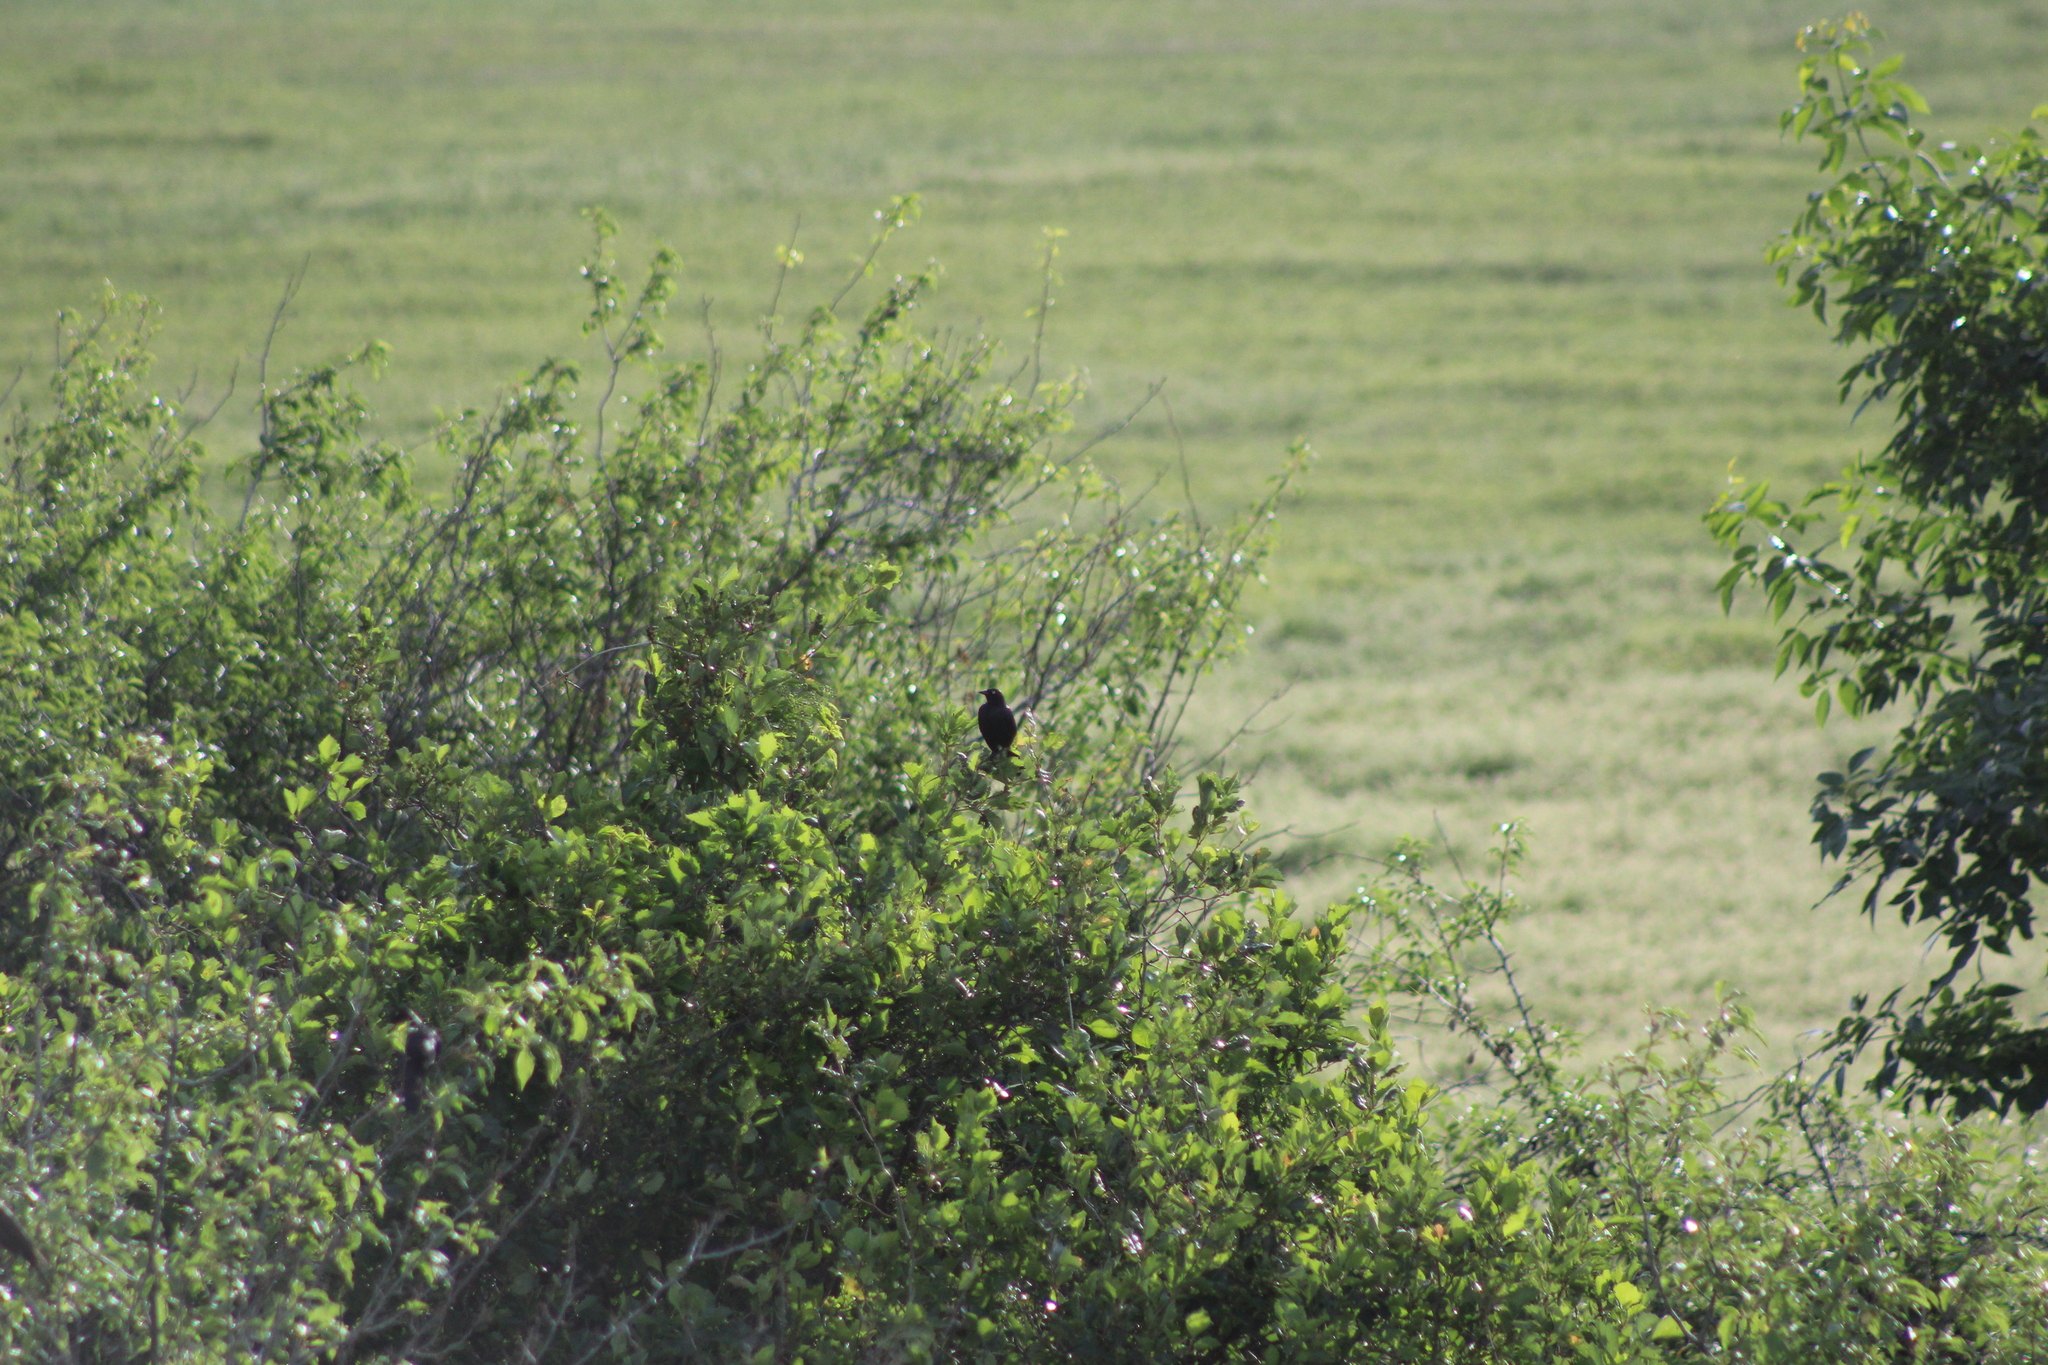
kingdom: Animalia
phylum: Chordata
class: Aves
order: Passeriformes
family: Icteridae
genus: Euphagus
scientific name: Euphagus cyanocephalus
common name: Brewer's blackbird
